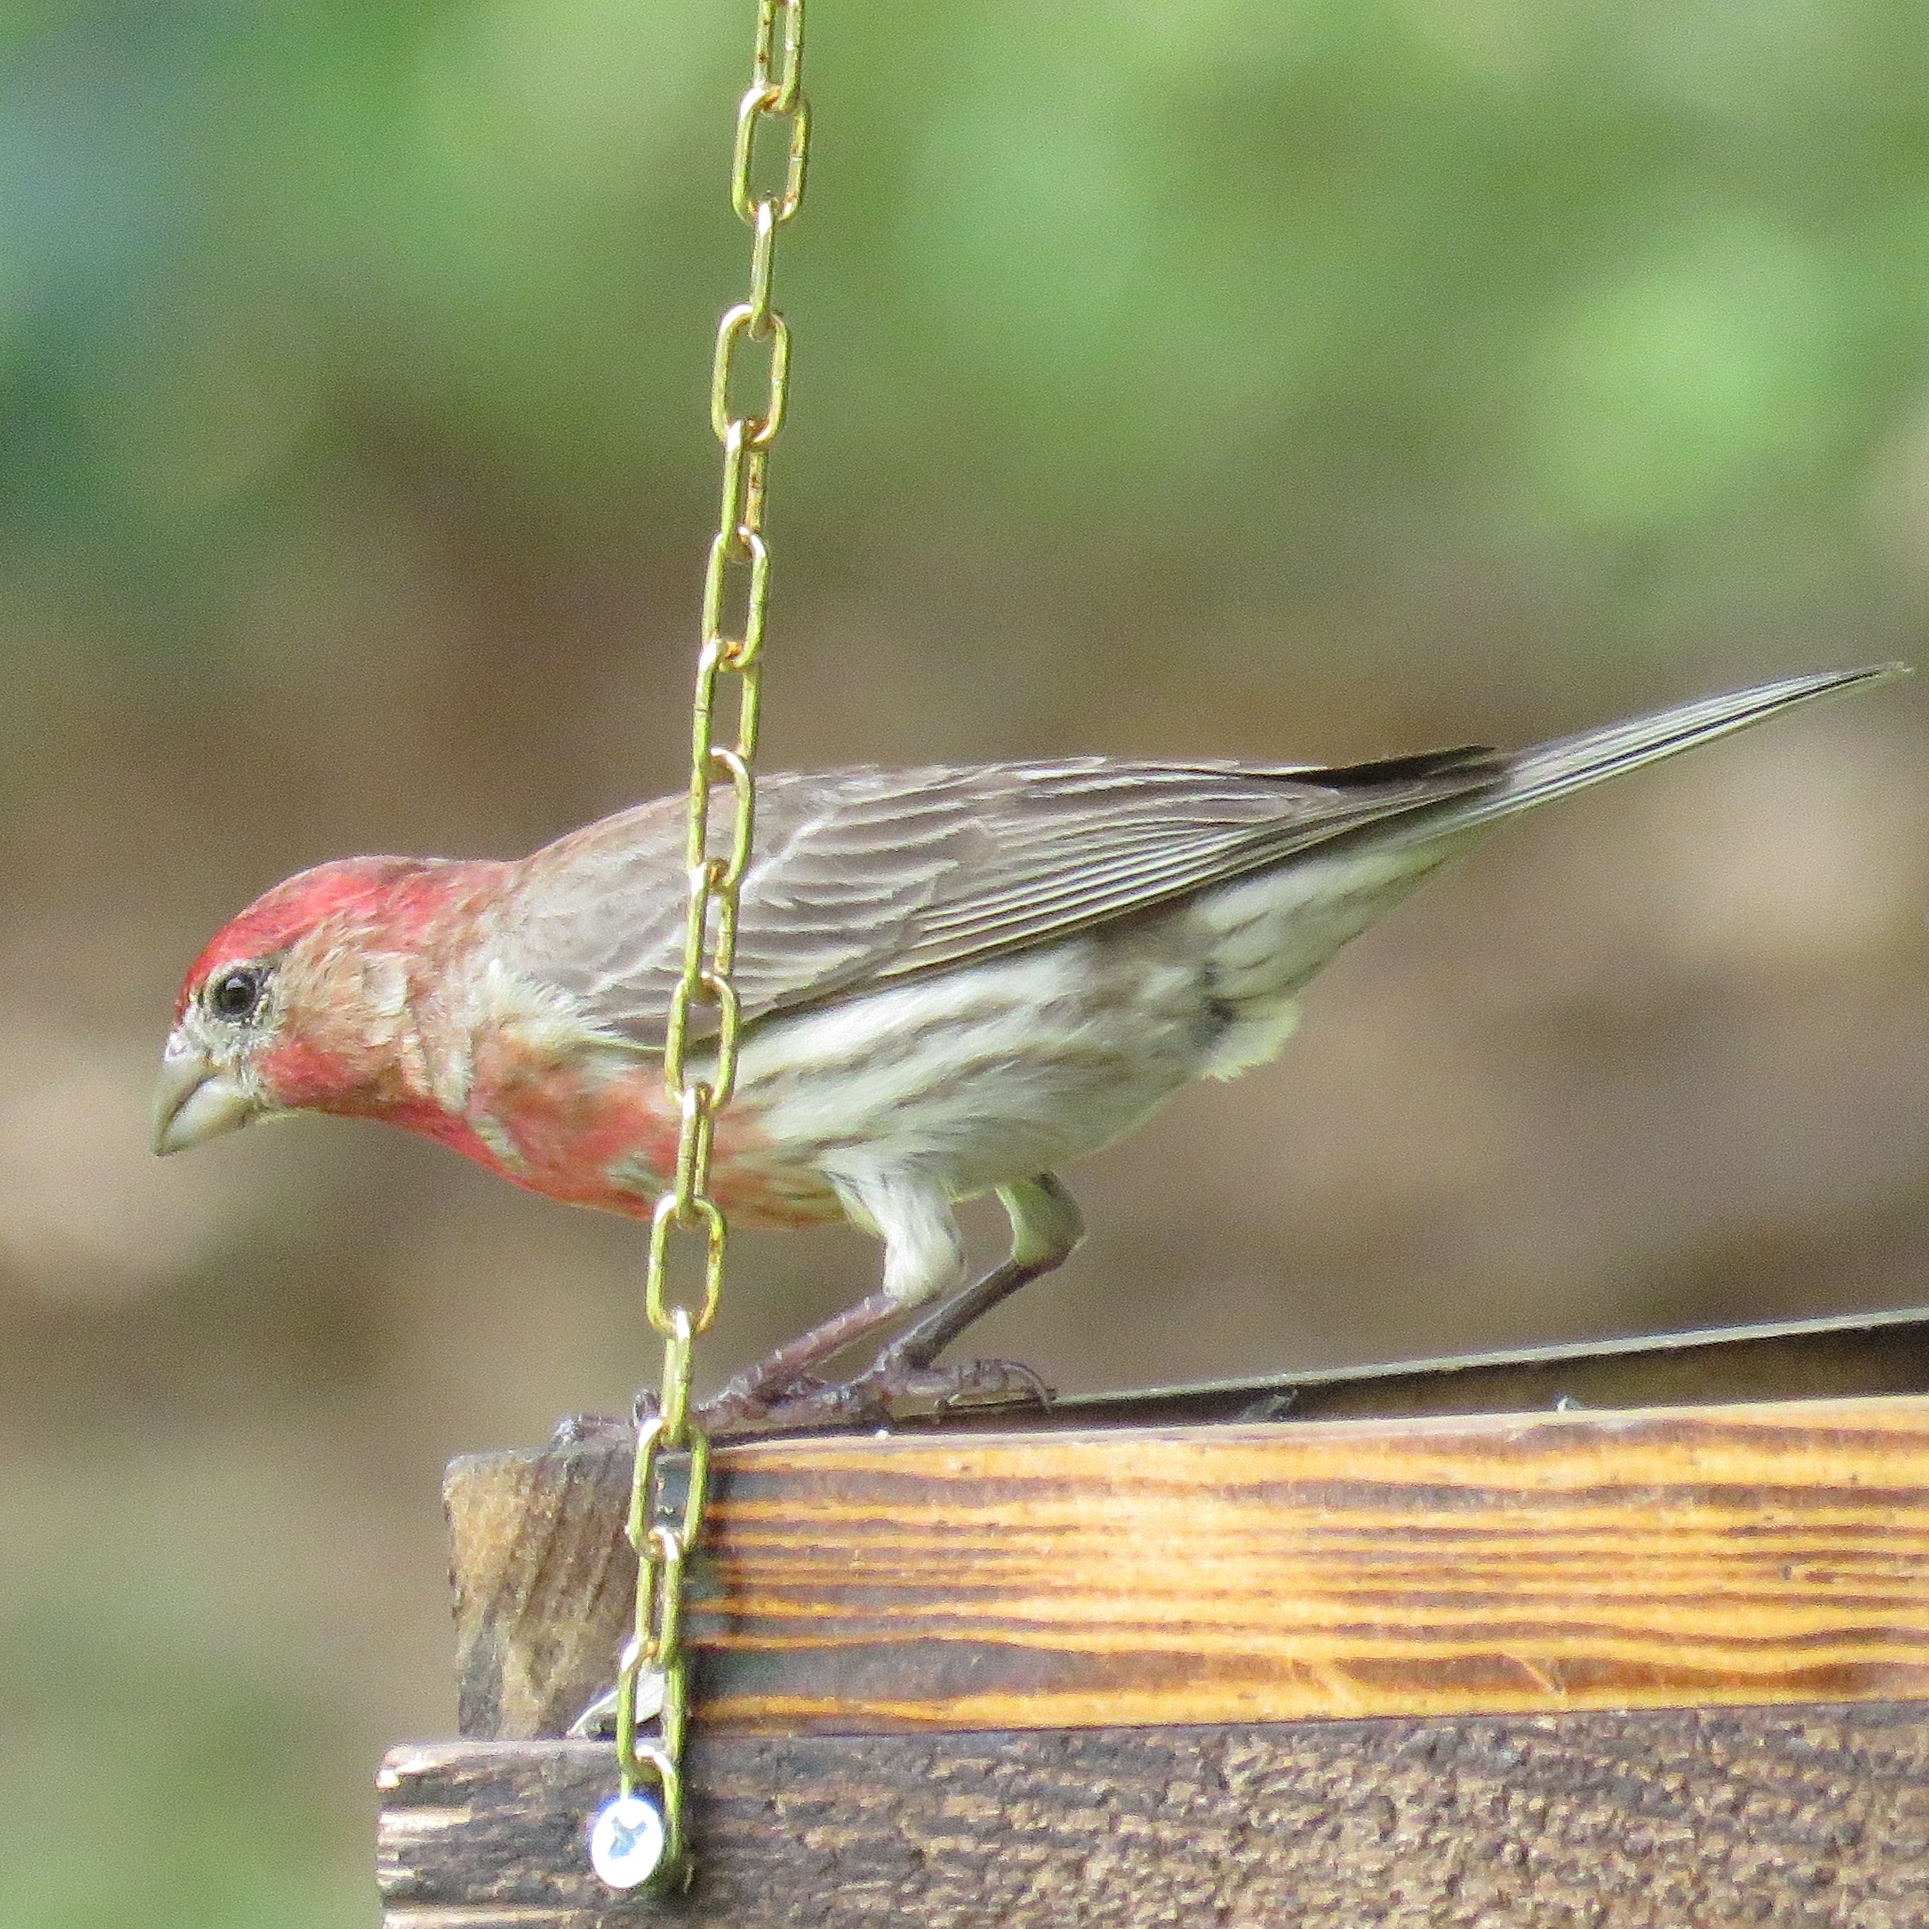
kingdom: Animalia
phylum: Chordata
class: Aves
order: Passeriformes
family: Fringillidae
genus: Haemorhous
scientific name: Haemorhous mexicanus
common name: House finch
